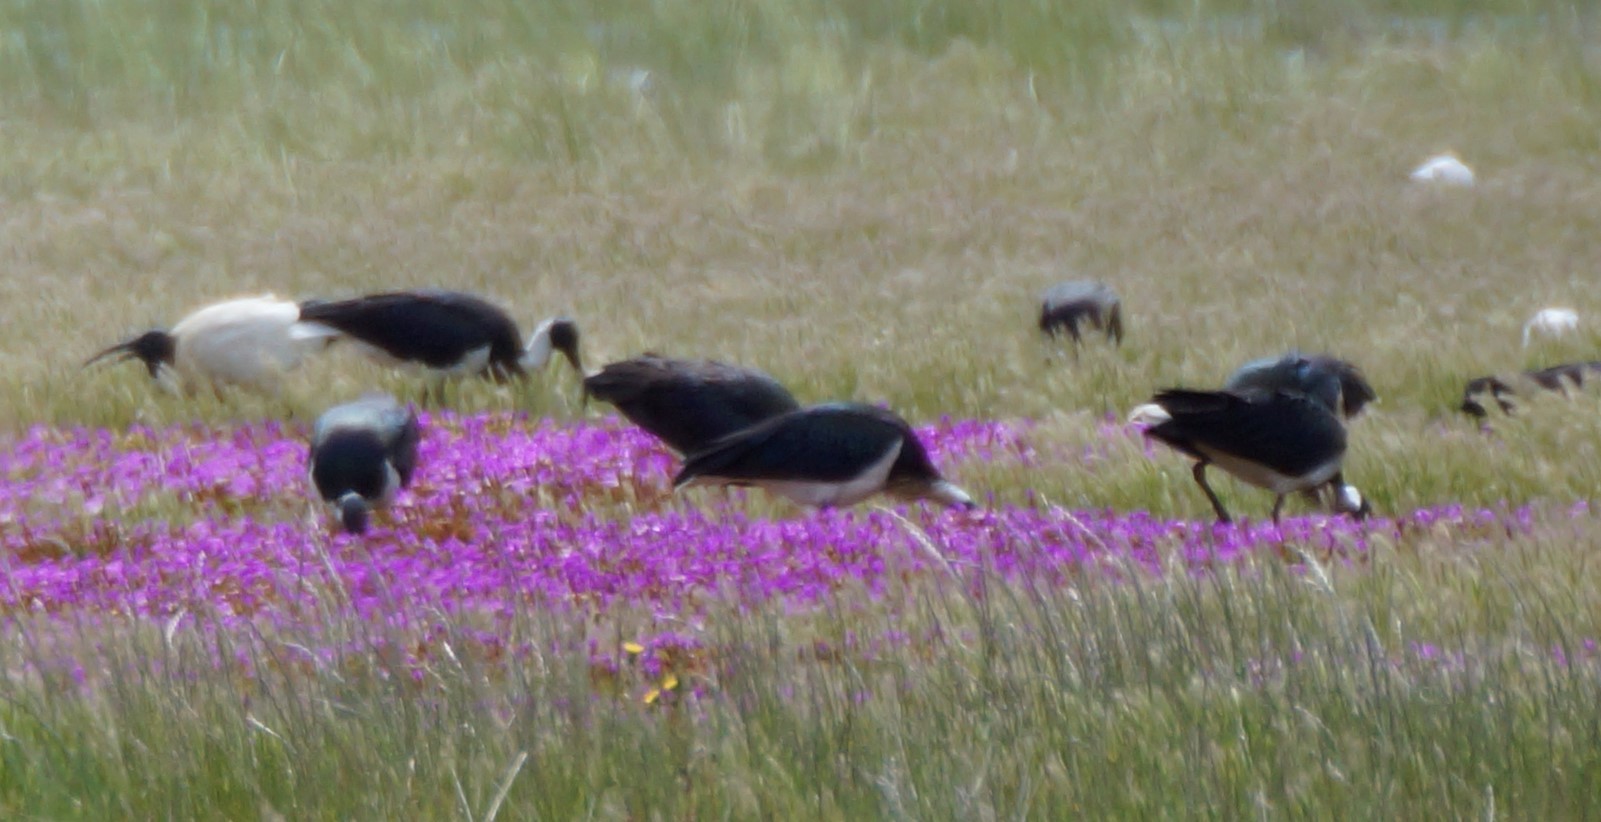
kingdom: Animalia
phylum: Chordata
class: Aves
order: Pelecaniformes
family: Threskiornithidae
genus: Threskiornis
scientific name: Threskiornis spinicollis
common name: Straw-necked ibis
